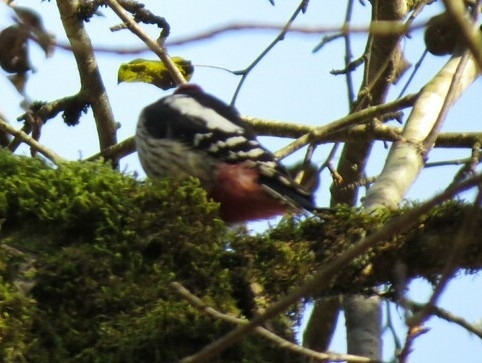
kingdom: Animalia
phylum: Chordata
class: Aves
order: Piciformes
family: Picidae
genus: Dendrocoptes
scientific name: Dendrocoptes medius
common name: Middle spotted woodpecker
